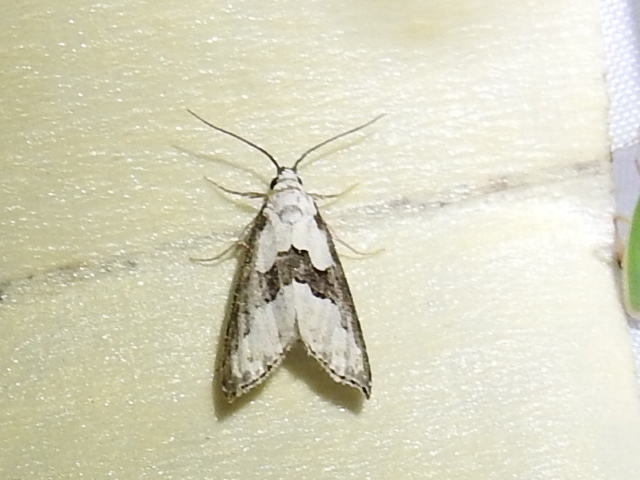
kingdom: Animalia
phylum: Arthropoda
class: Insecta
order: Lepidoptera
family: Noctuidae
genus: Nigetia
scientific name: Nigetia formosalis
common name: Thin-winged owlet
